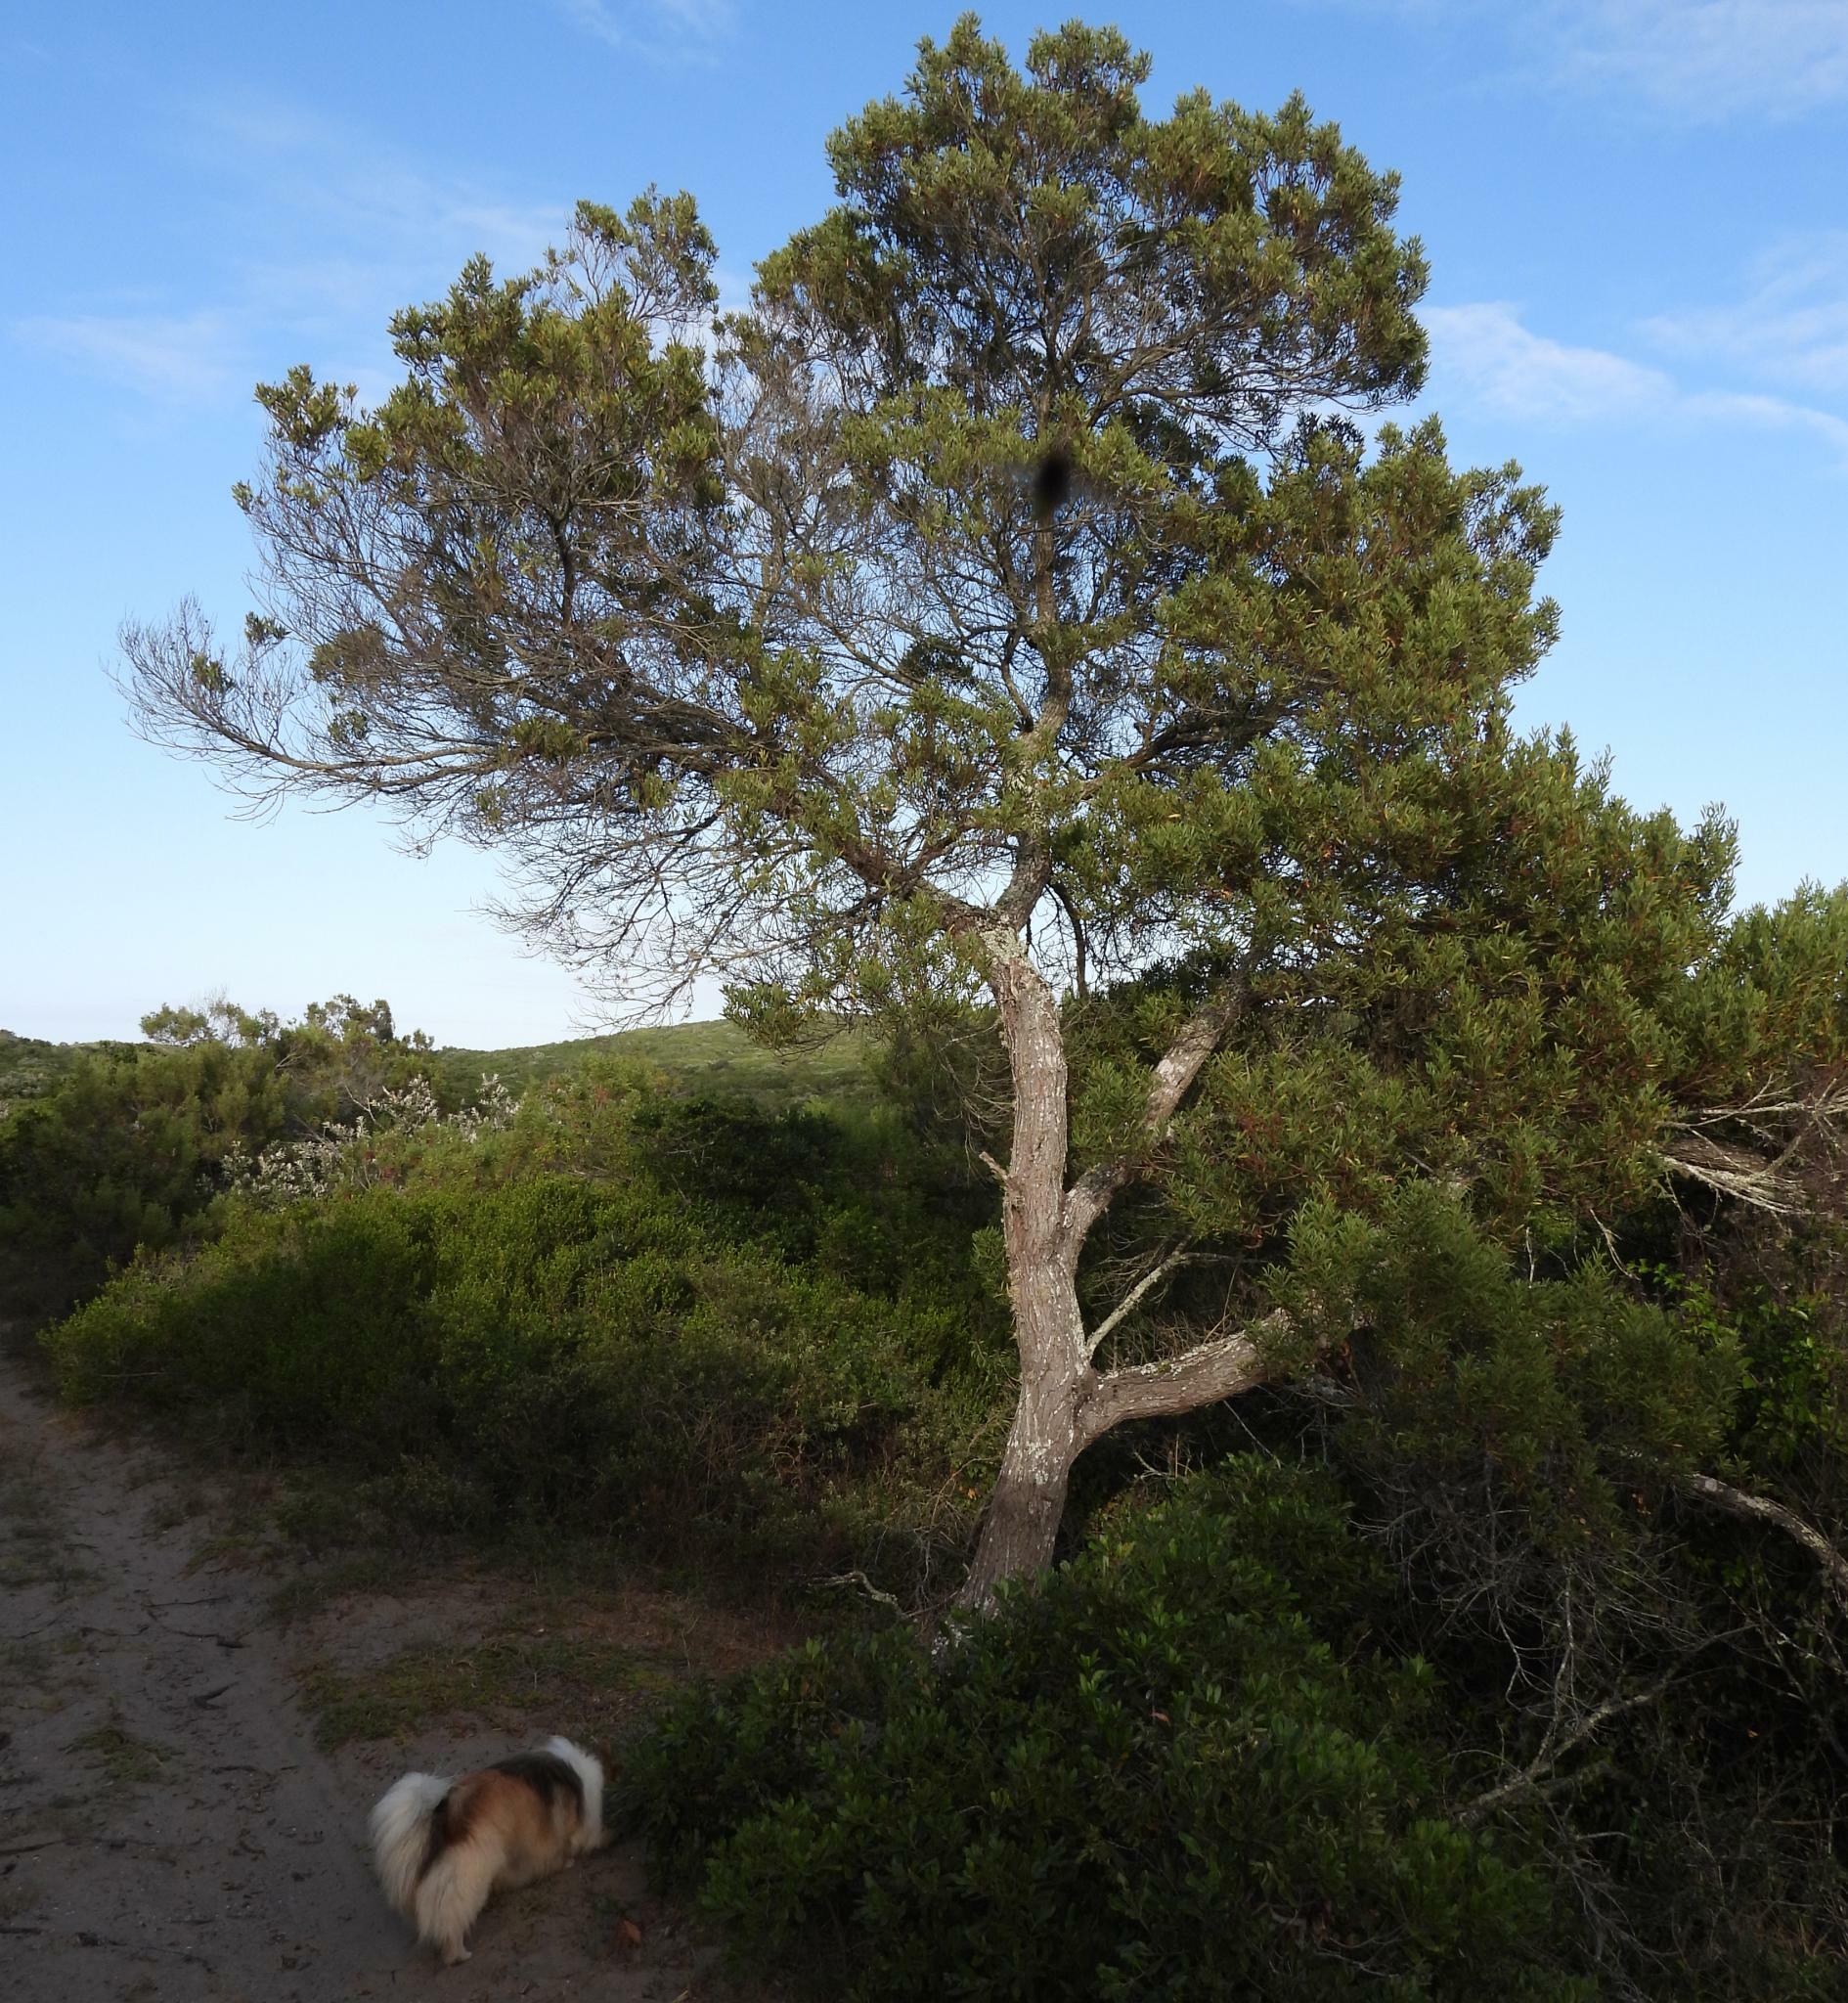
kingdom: Plantae
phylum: Tracheophyta
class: Magnoliopsida
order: Fabales
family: Fabaceae
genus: Acacia
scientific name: Acacia cyclops
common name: Coastal wattle
